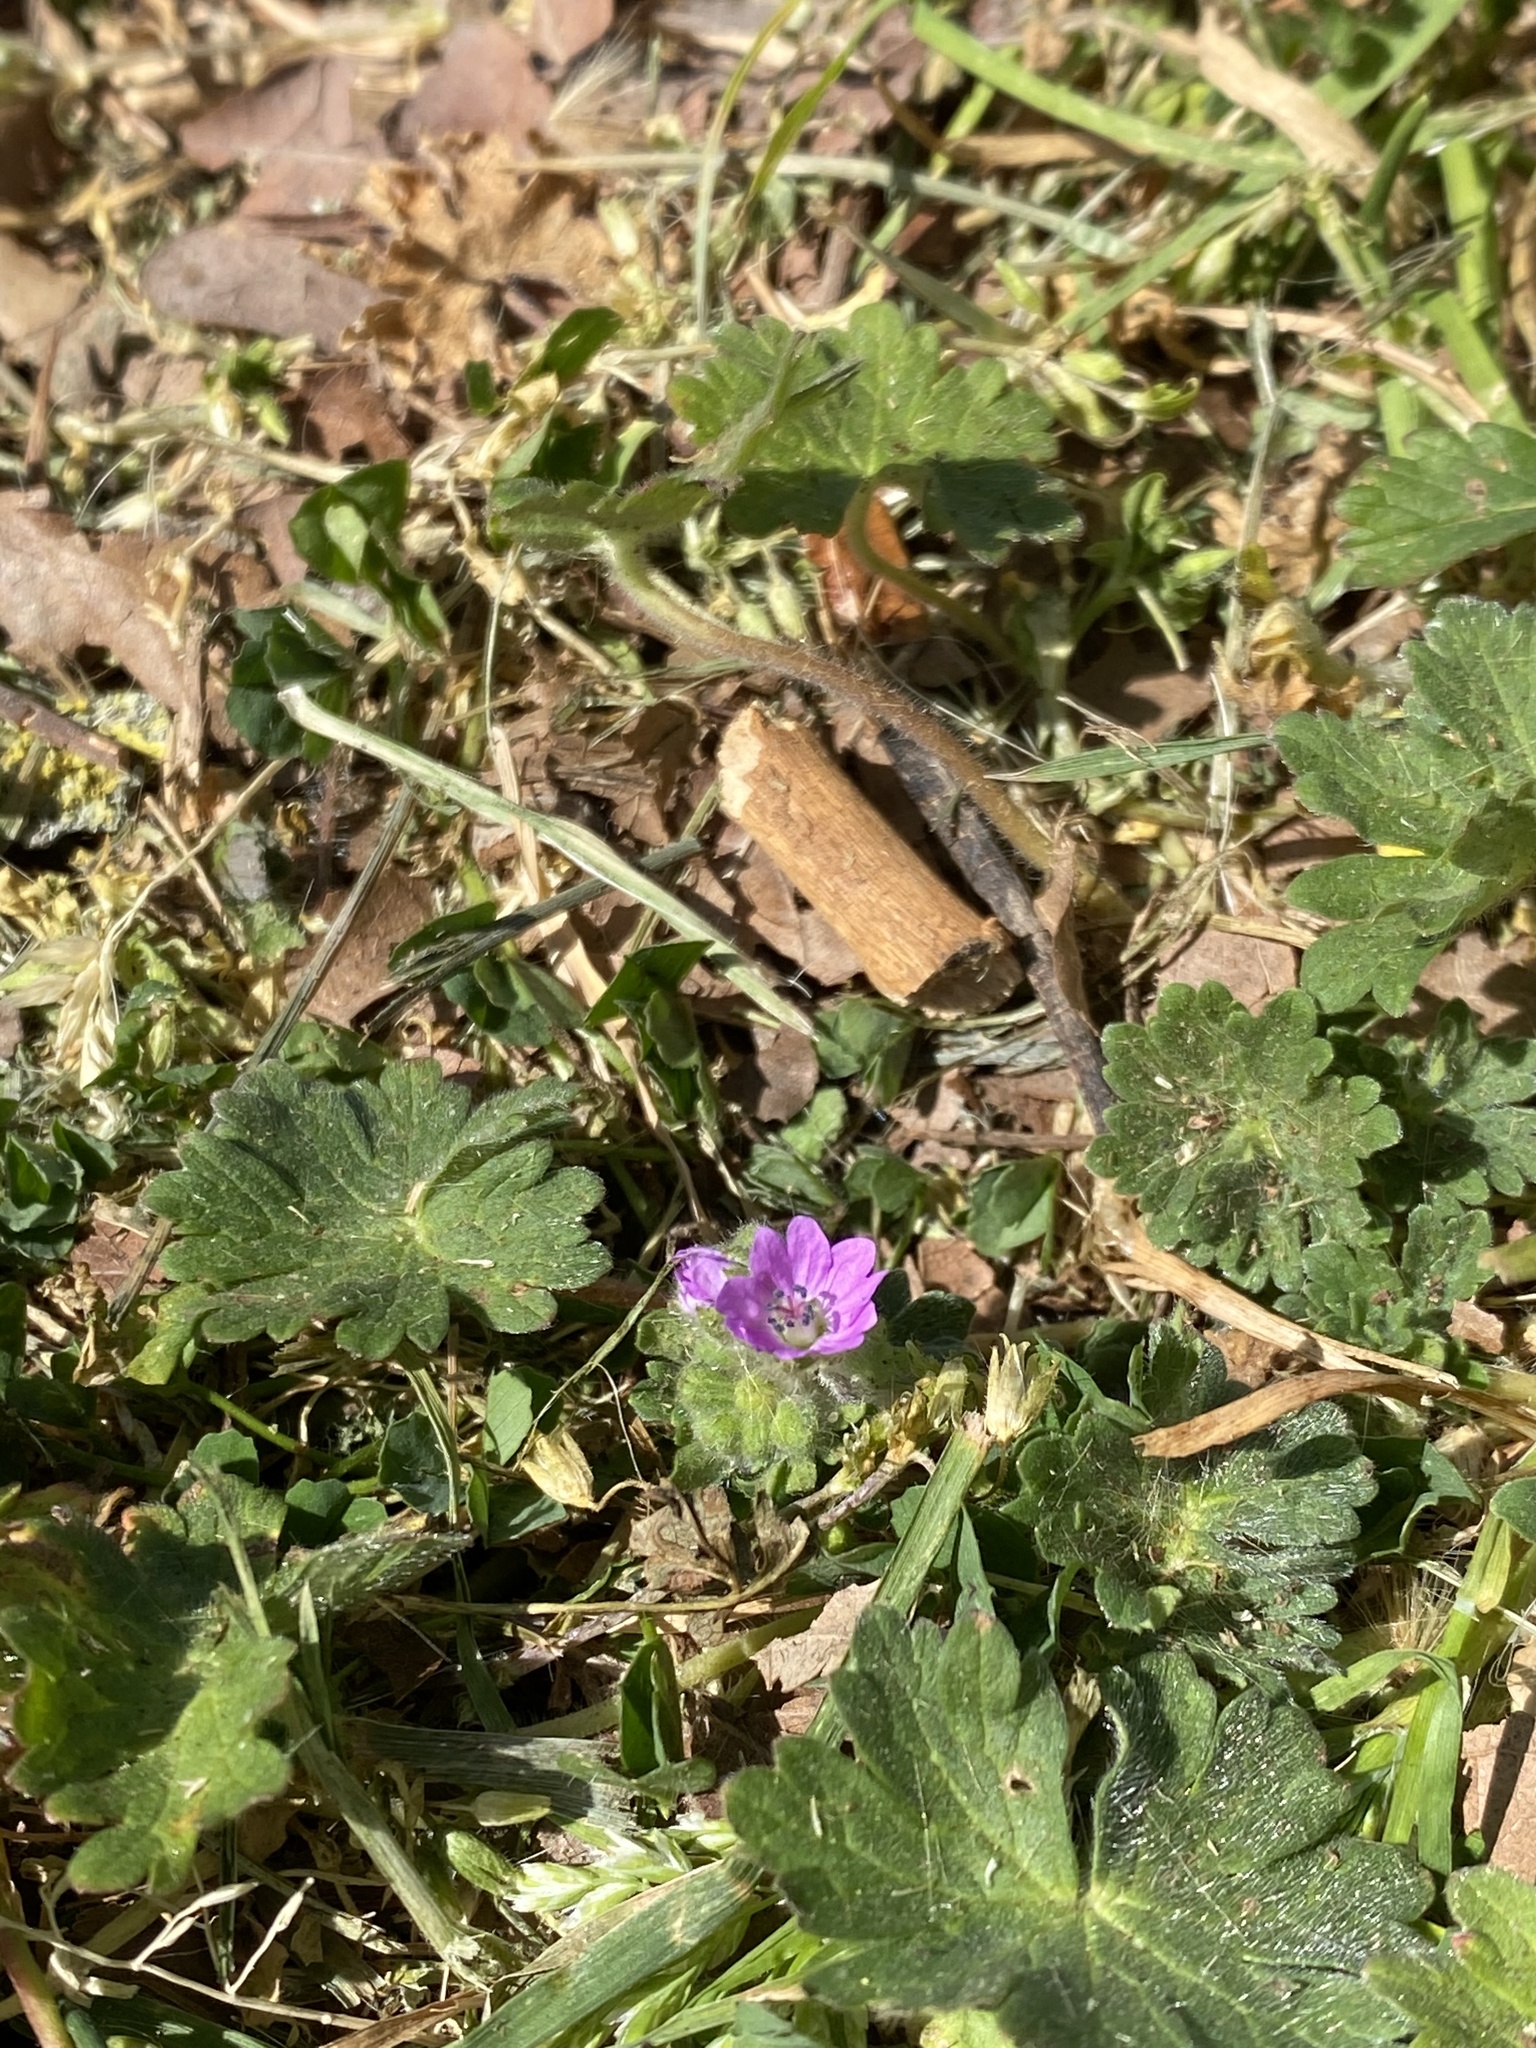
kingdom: Plantae
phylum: Tracheophyta
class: Magnoliopsida
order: Geraniales
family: Geraniaceae
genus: Geranium
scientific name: Geranium molle
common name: Dove's-foot crane's-bill
